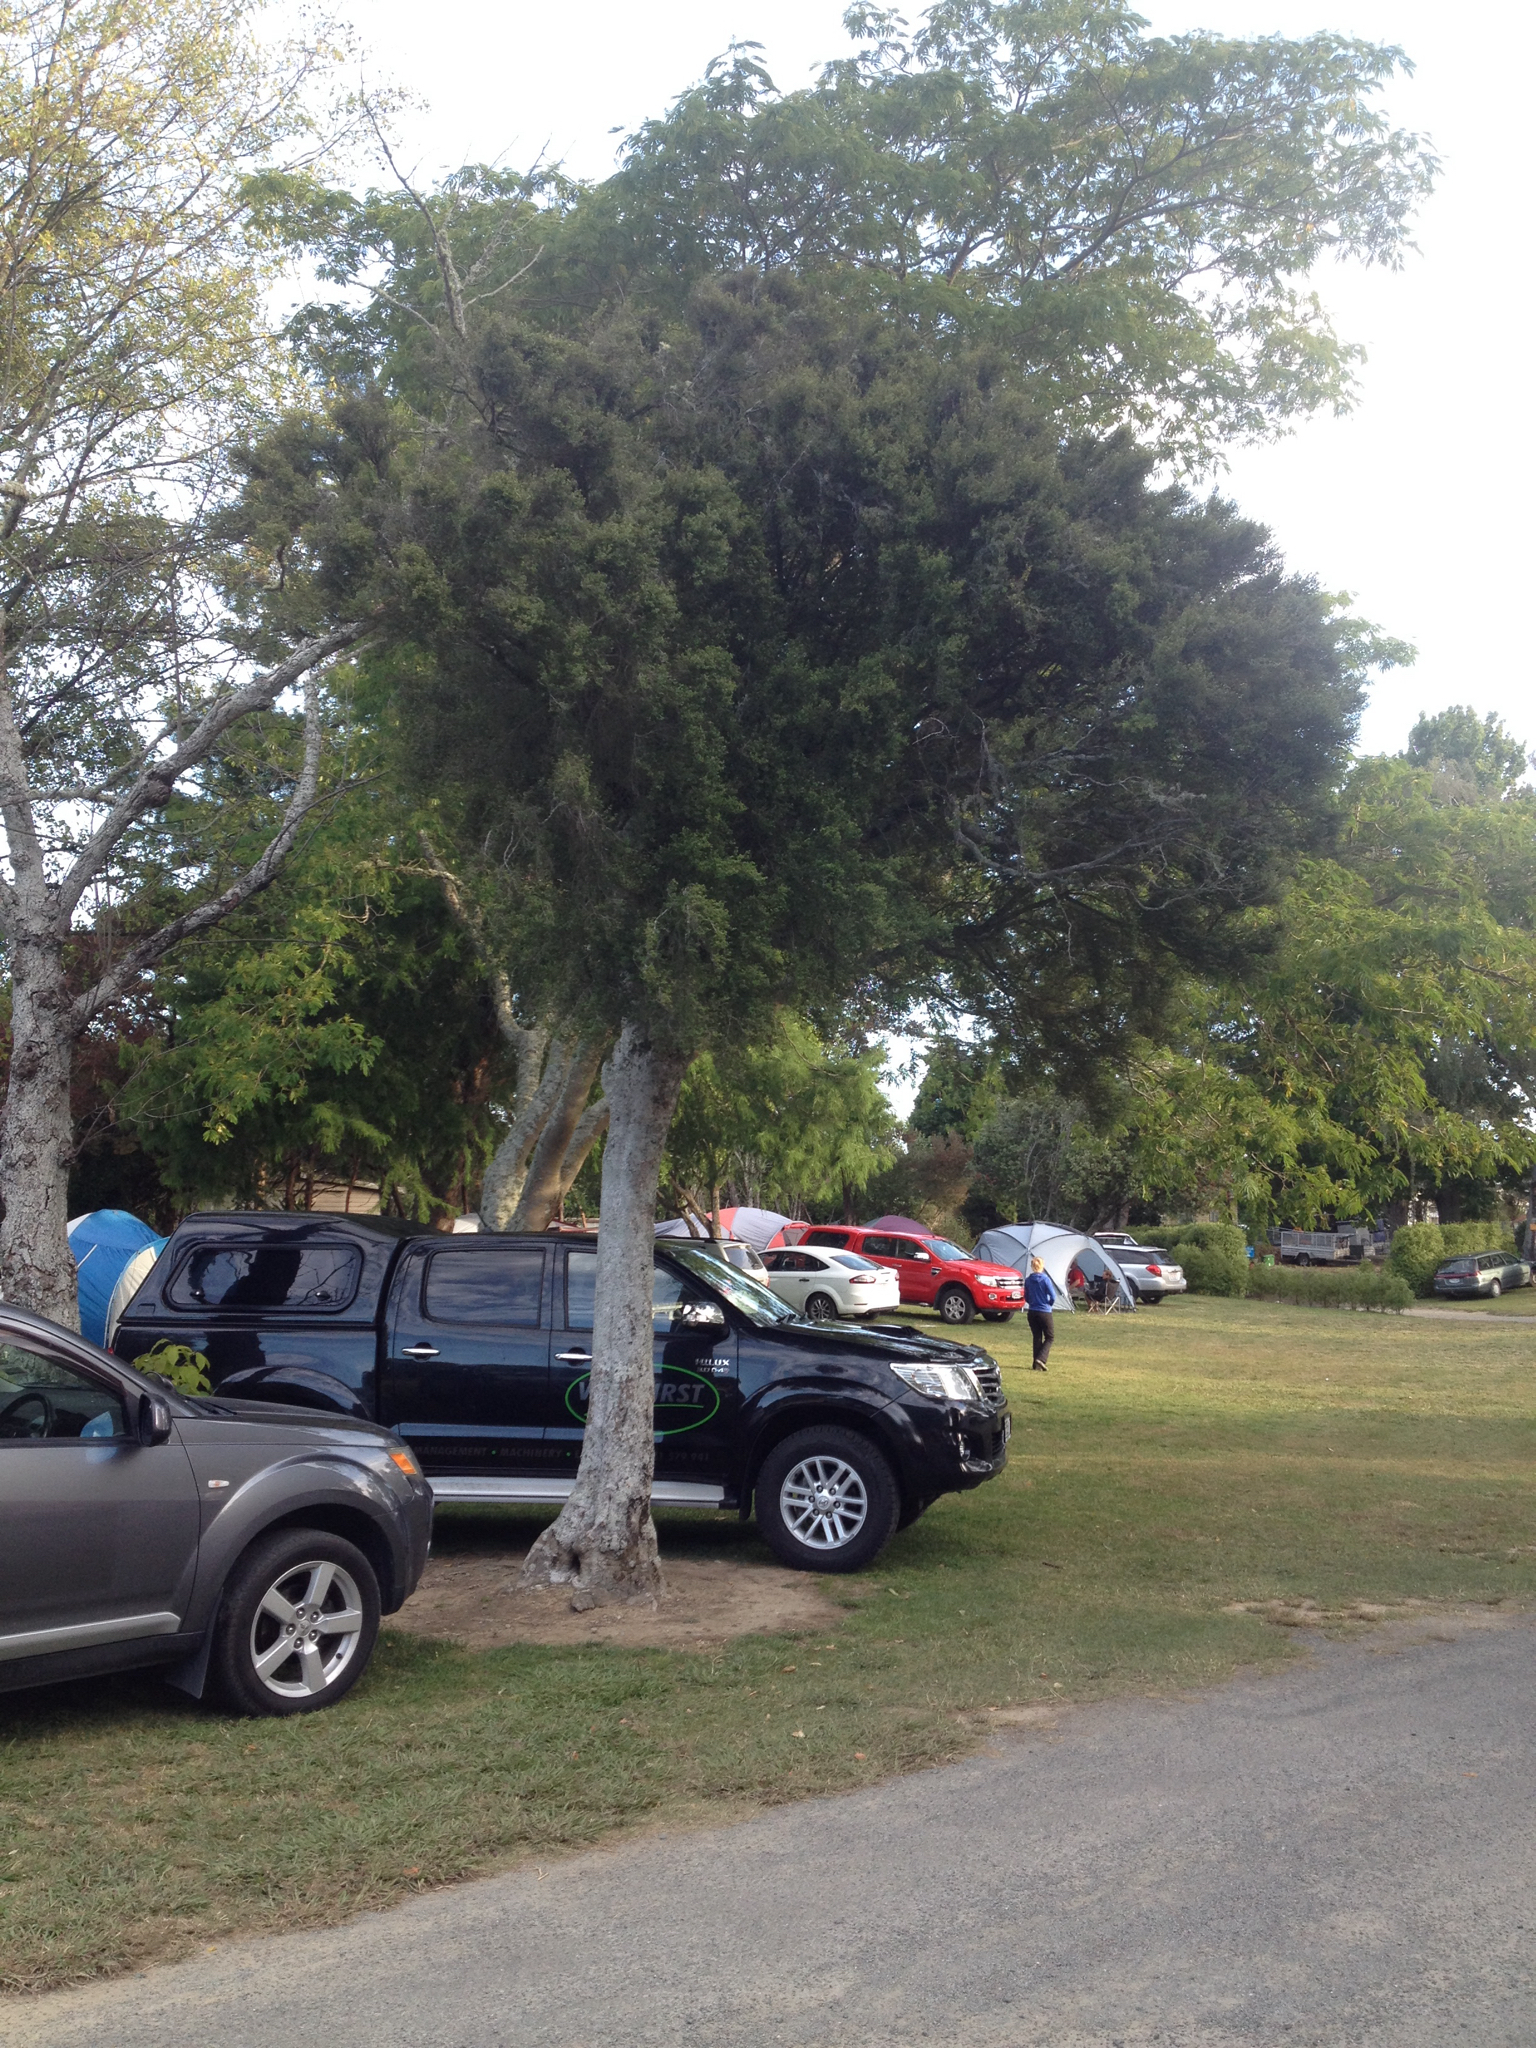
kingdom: Plantae
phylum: Tracheophyta
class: Magnoliopsida
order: Rosales
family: Moraceae
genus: Paratrophis
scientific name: Paratrophis microphylla
